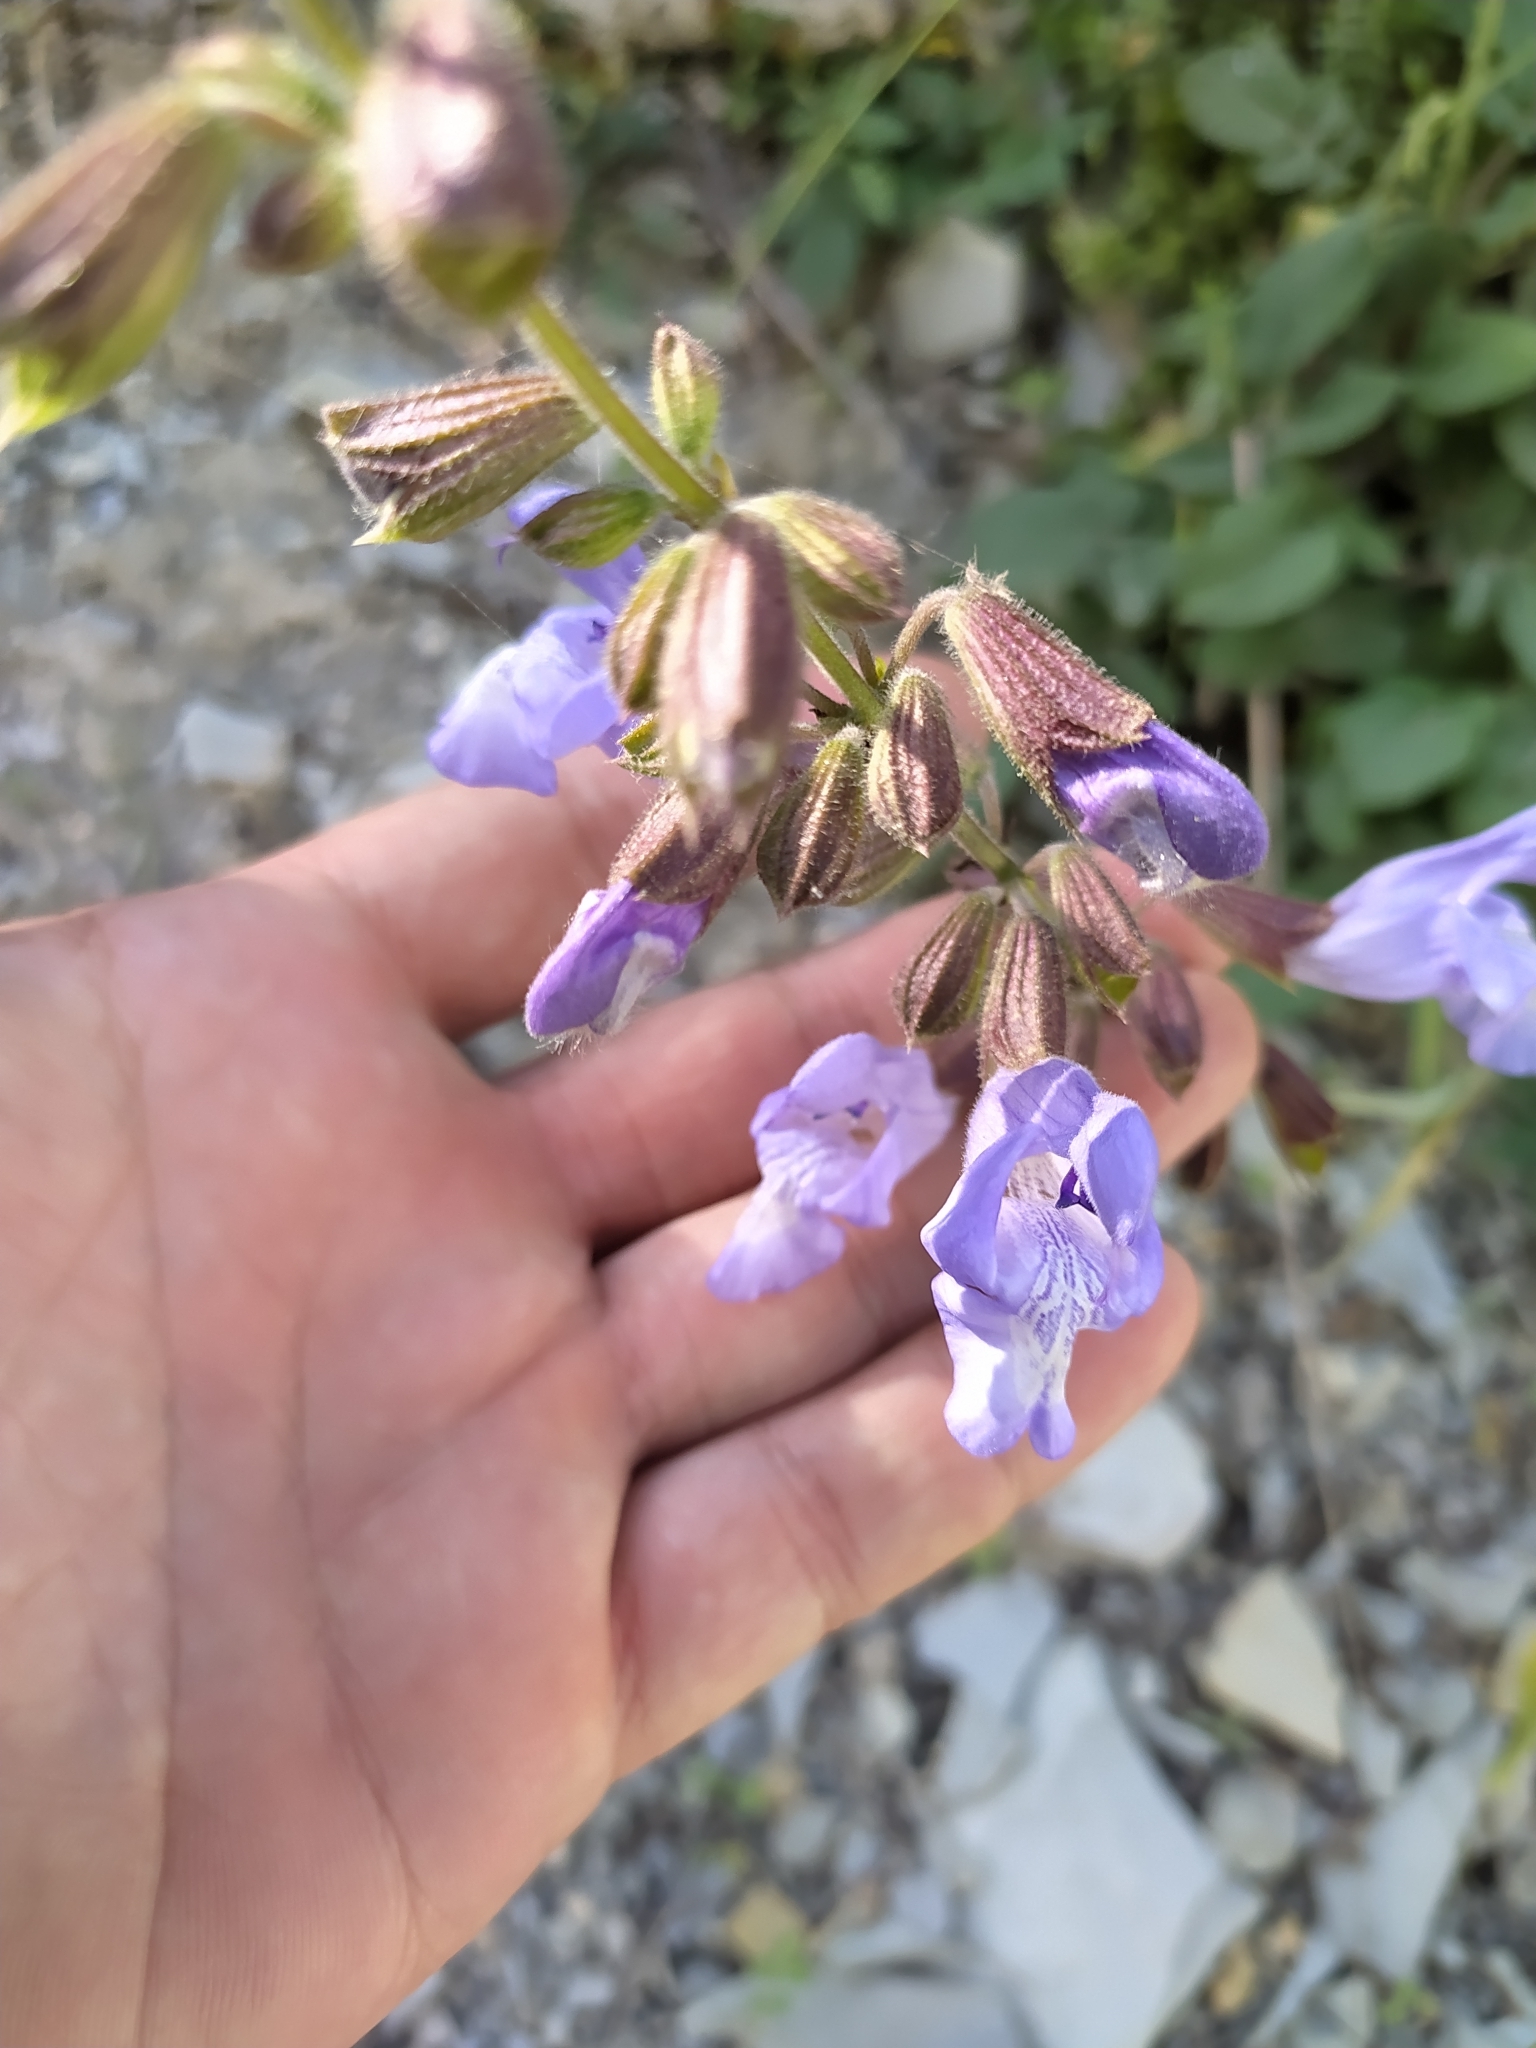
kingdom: Plantae
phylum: Tracheophyta
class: Magnoliopsida
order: Lamiales
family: Lamiaceae
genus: Salvia
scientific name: Salvia ringens
